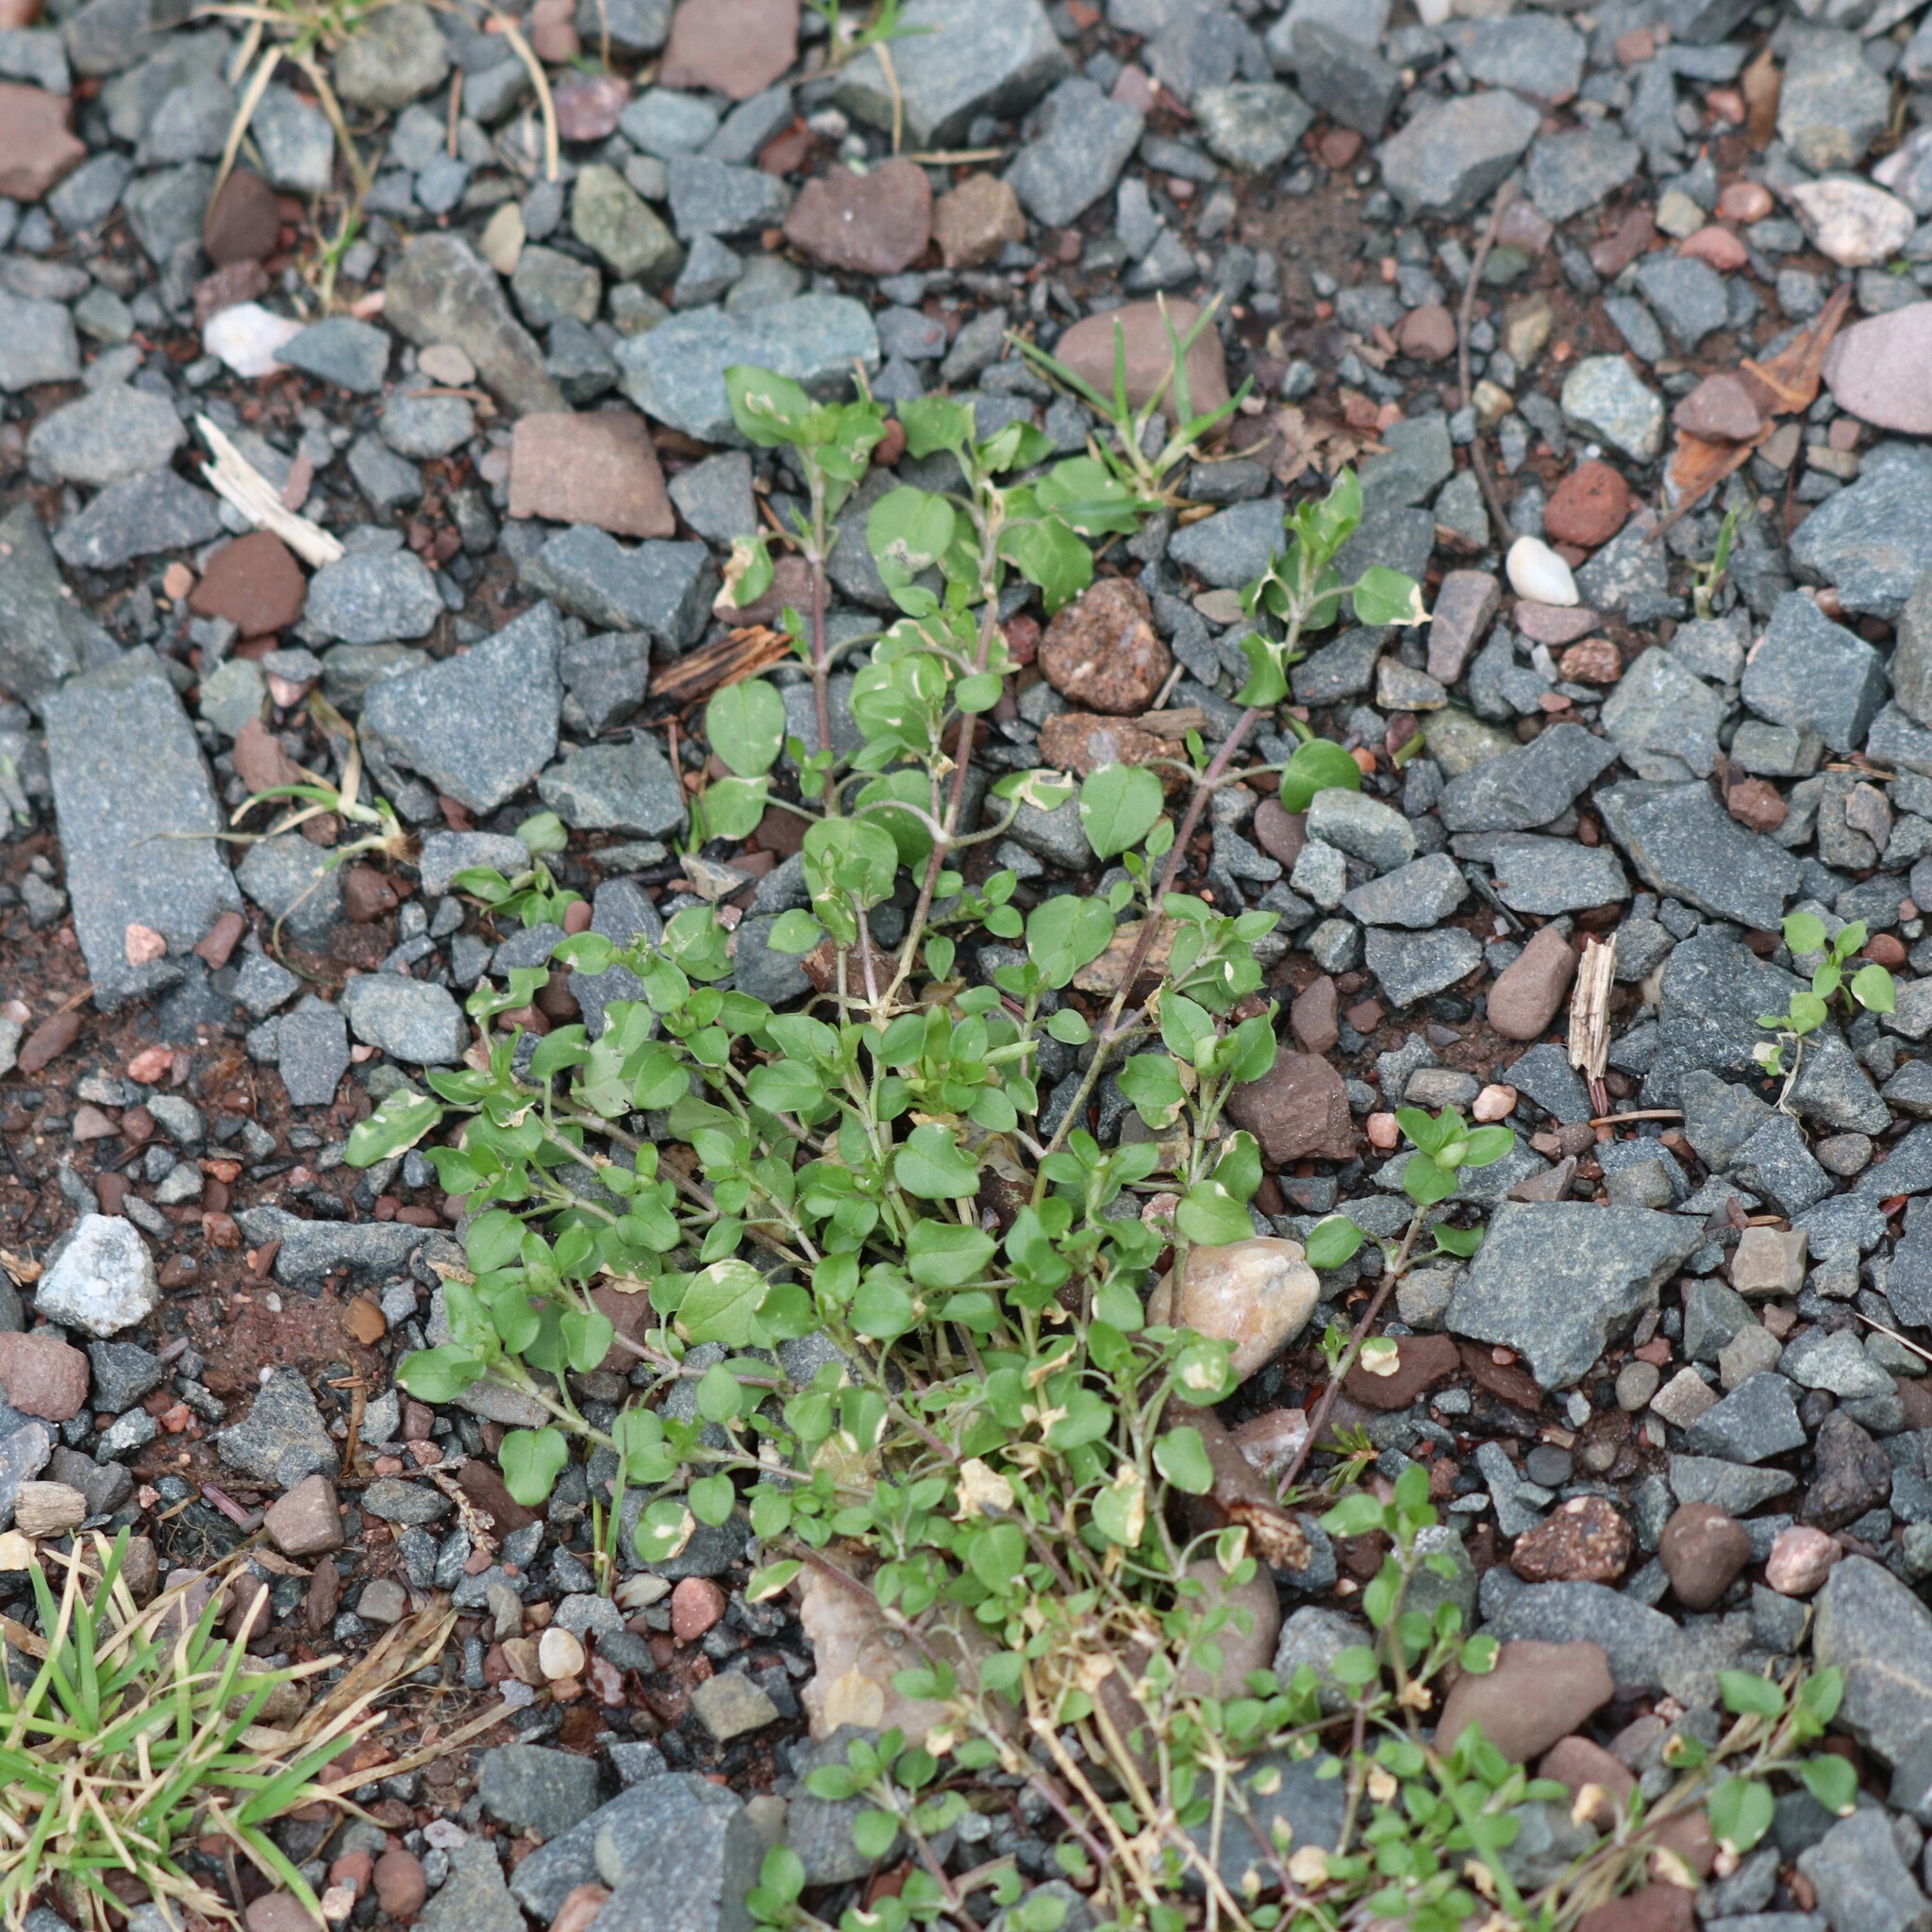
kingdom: Plantae
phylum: Tracheophyta
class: Magnoliopsida
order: Caryophyllales
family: Caryophyllaceae
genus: Stellaria
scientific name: Stellaria media
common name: Common chickweed
